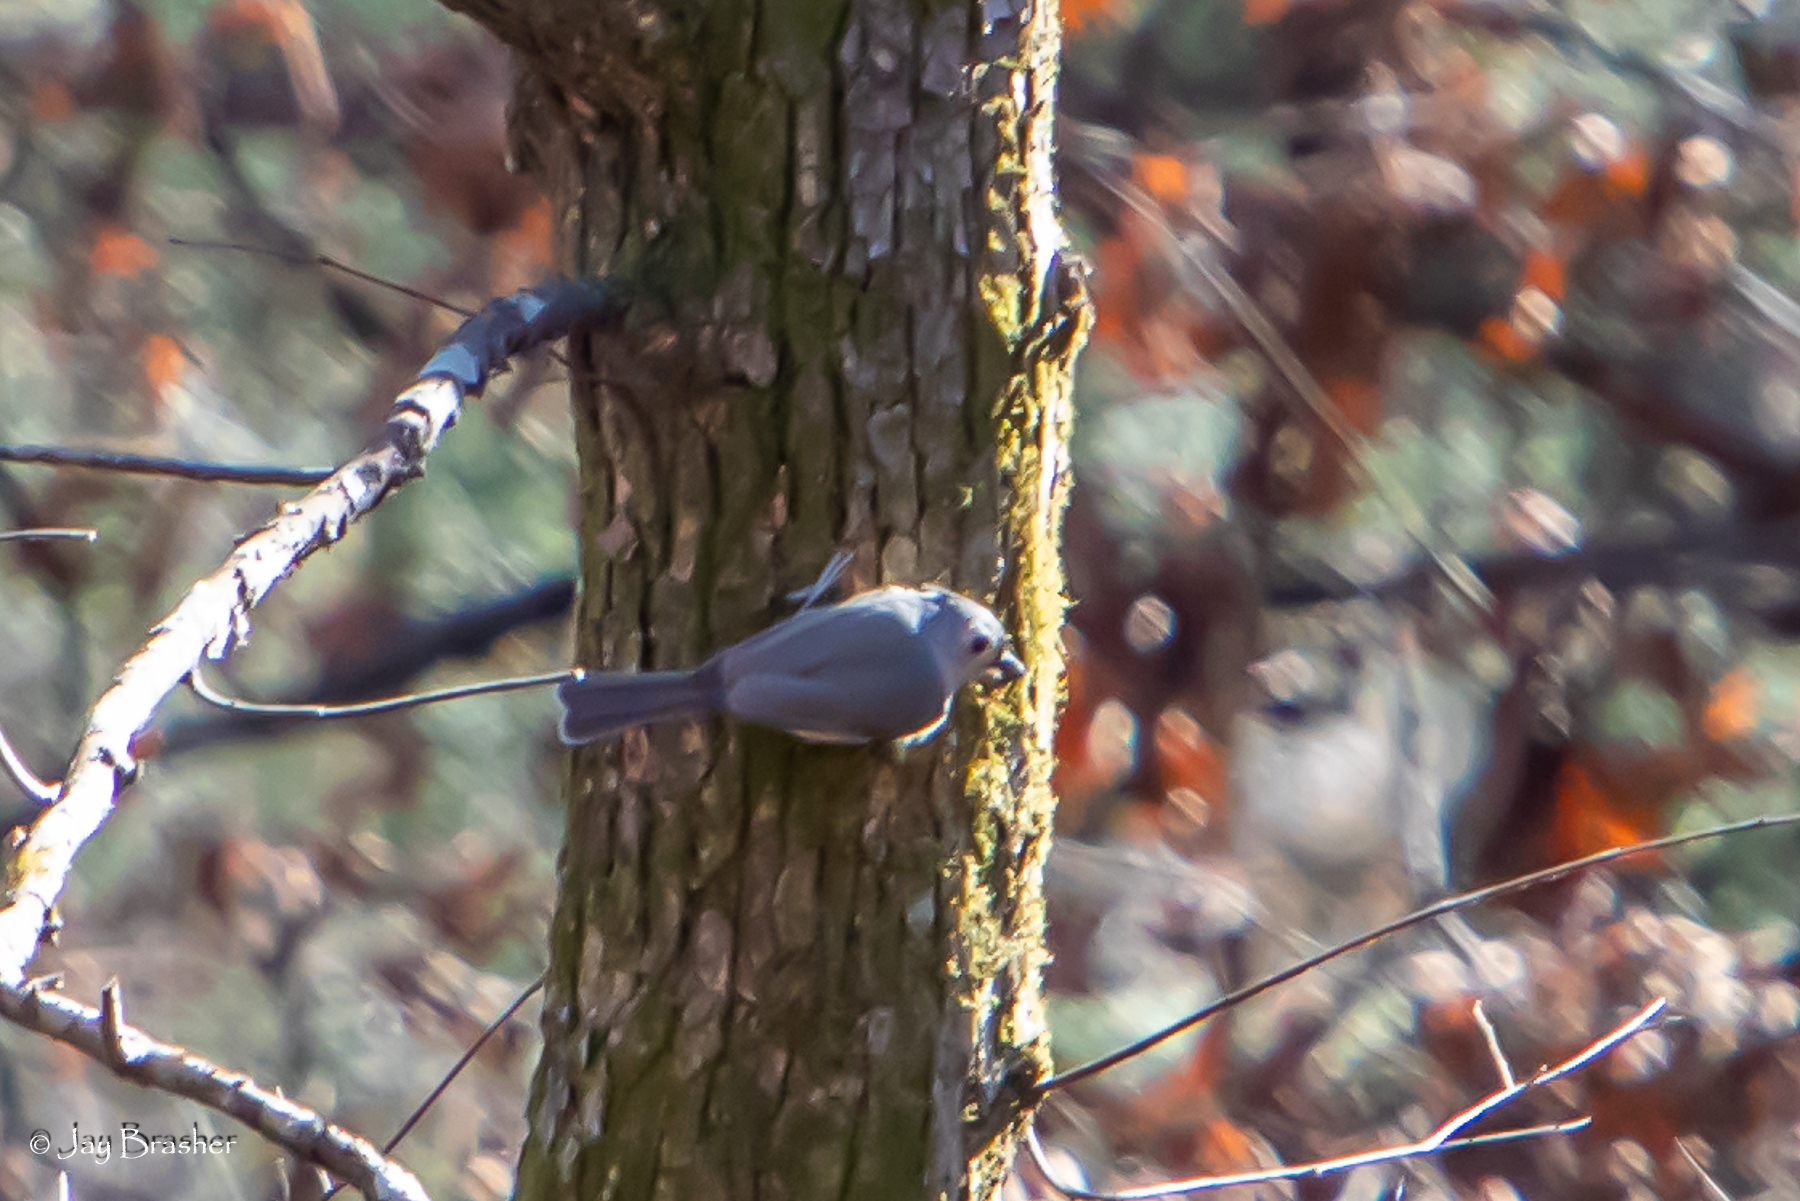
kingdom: Animalia
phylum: Chordata
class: Aves
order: Passeriformes
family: Paridae
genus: Baeolophus
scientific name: Baeolophus bicolor
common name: Tufted titmouse
